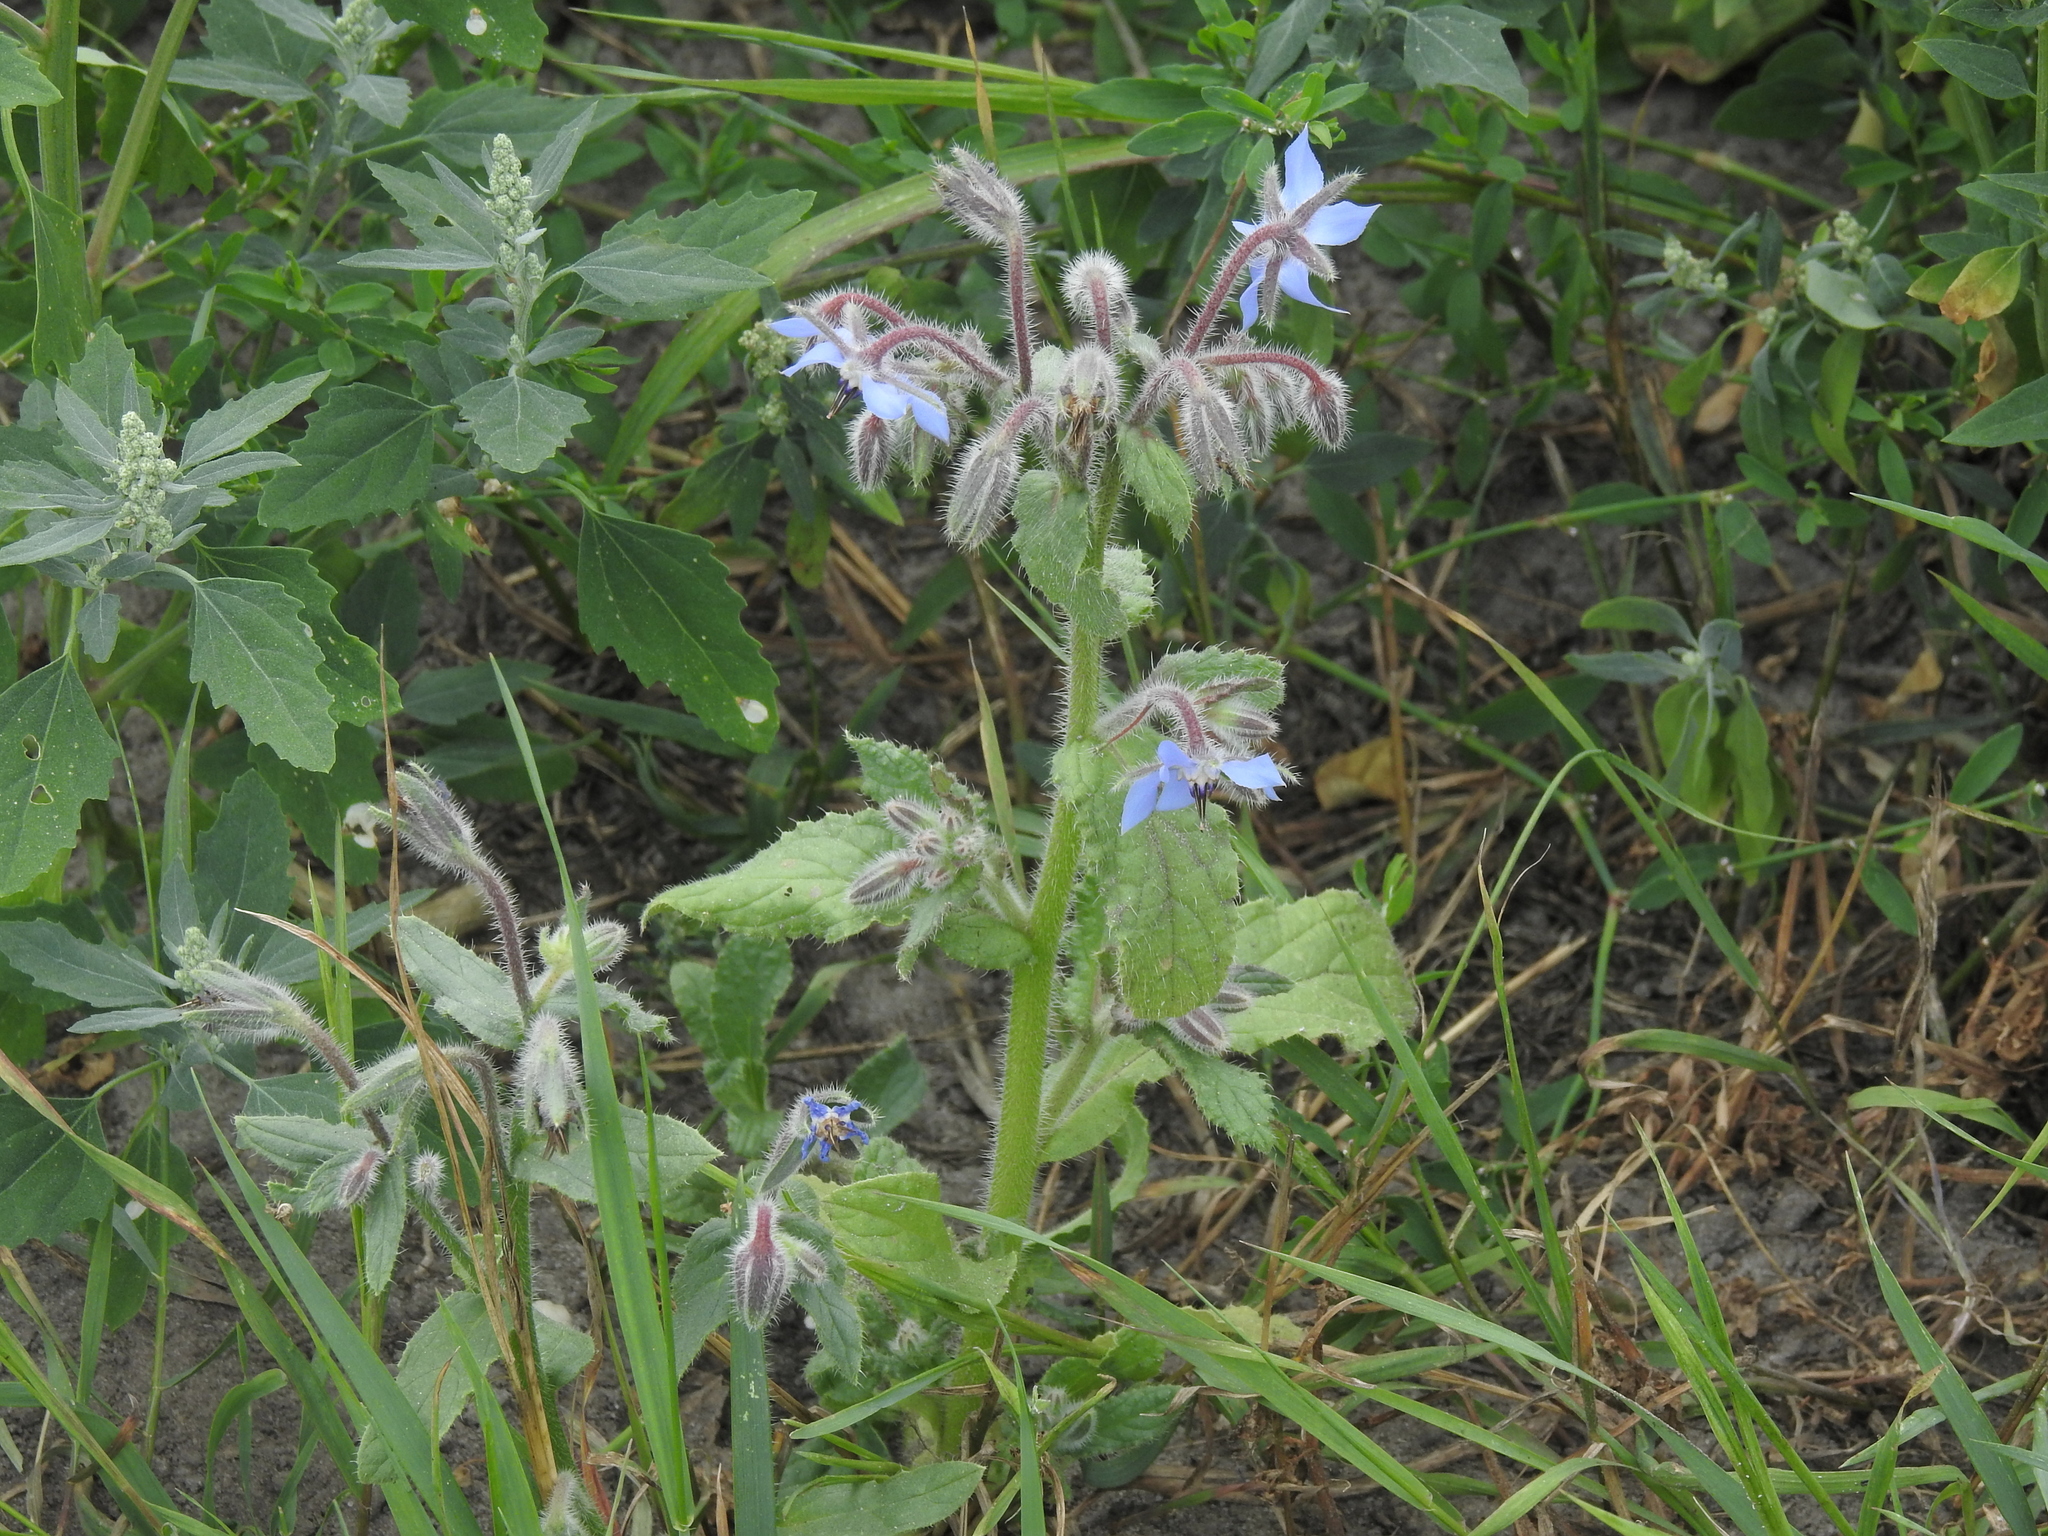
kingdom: Plantae
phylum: Tracheophyta
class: Magnoliopsida
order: Boraginales
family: Boraginaceae
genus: Borago
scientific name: Borago officinalis
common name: Borage
